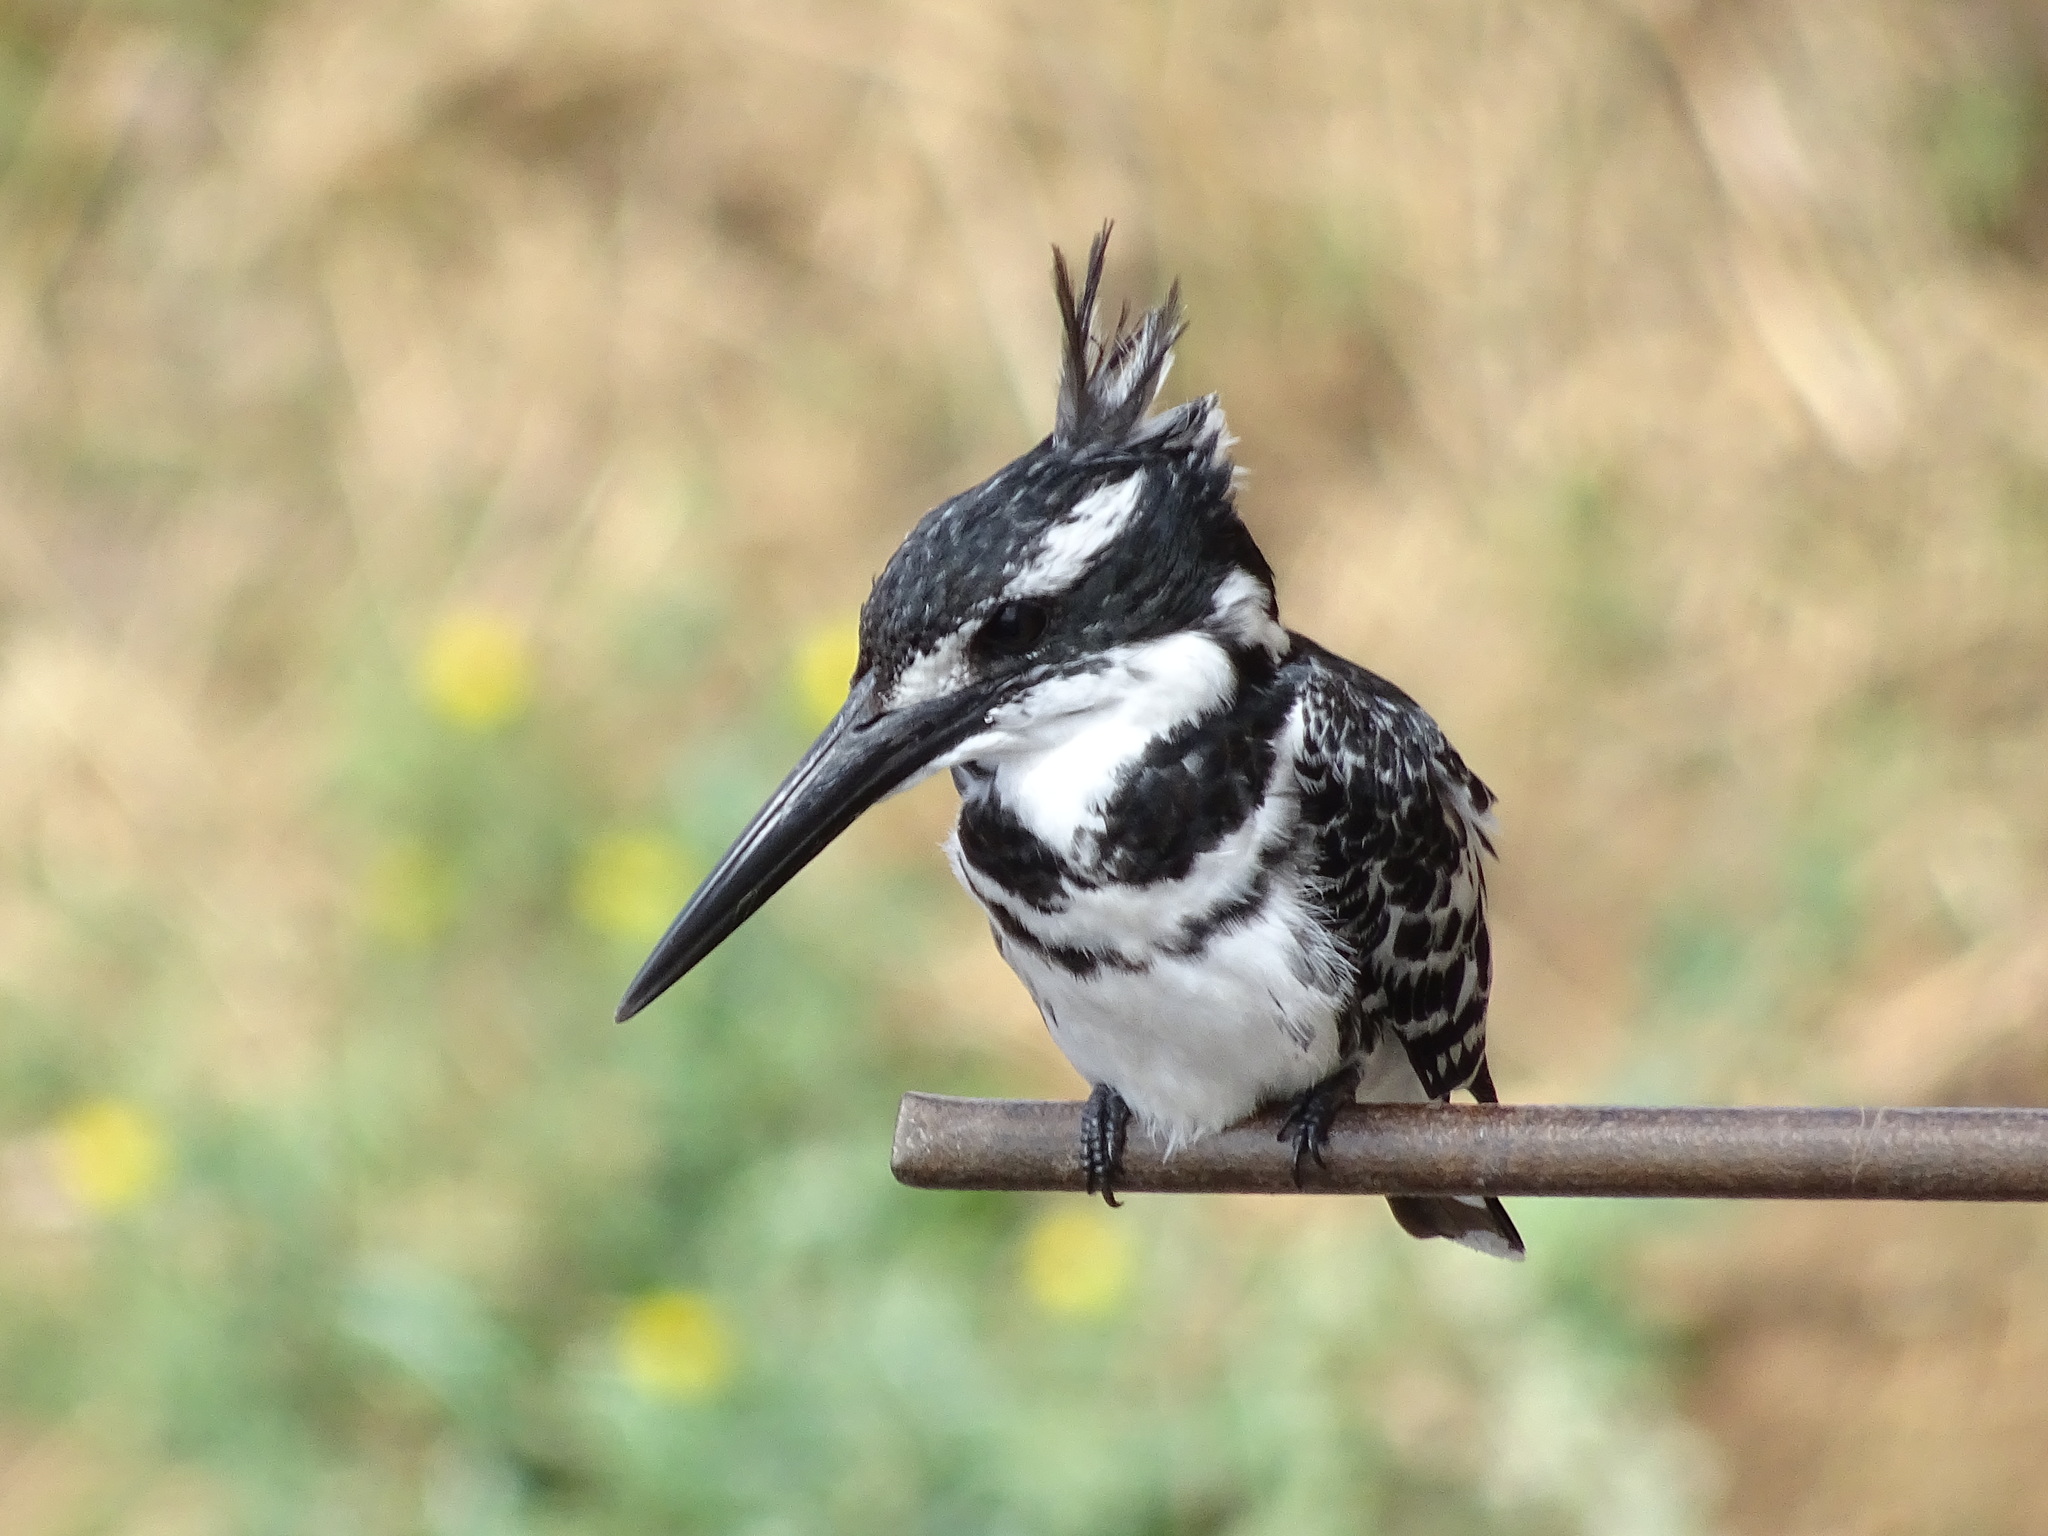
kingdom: Animalia
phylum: Chordata
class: Aves
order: Coraciiformes
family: Alcedinidae
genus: Ceryle
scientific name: Ceryle rudis
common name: Pied kingfisher
